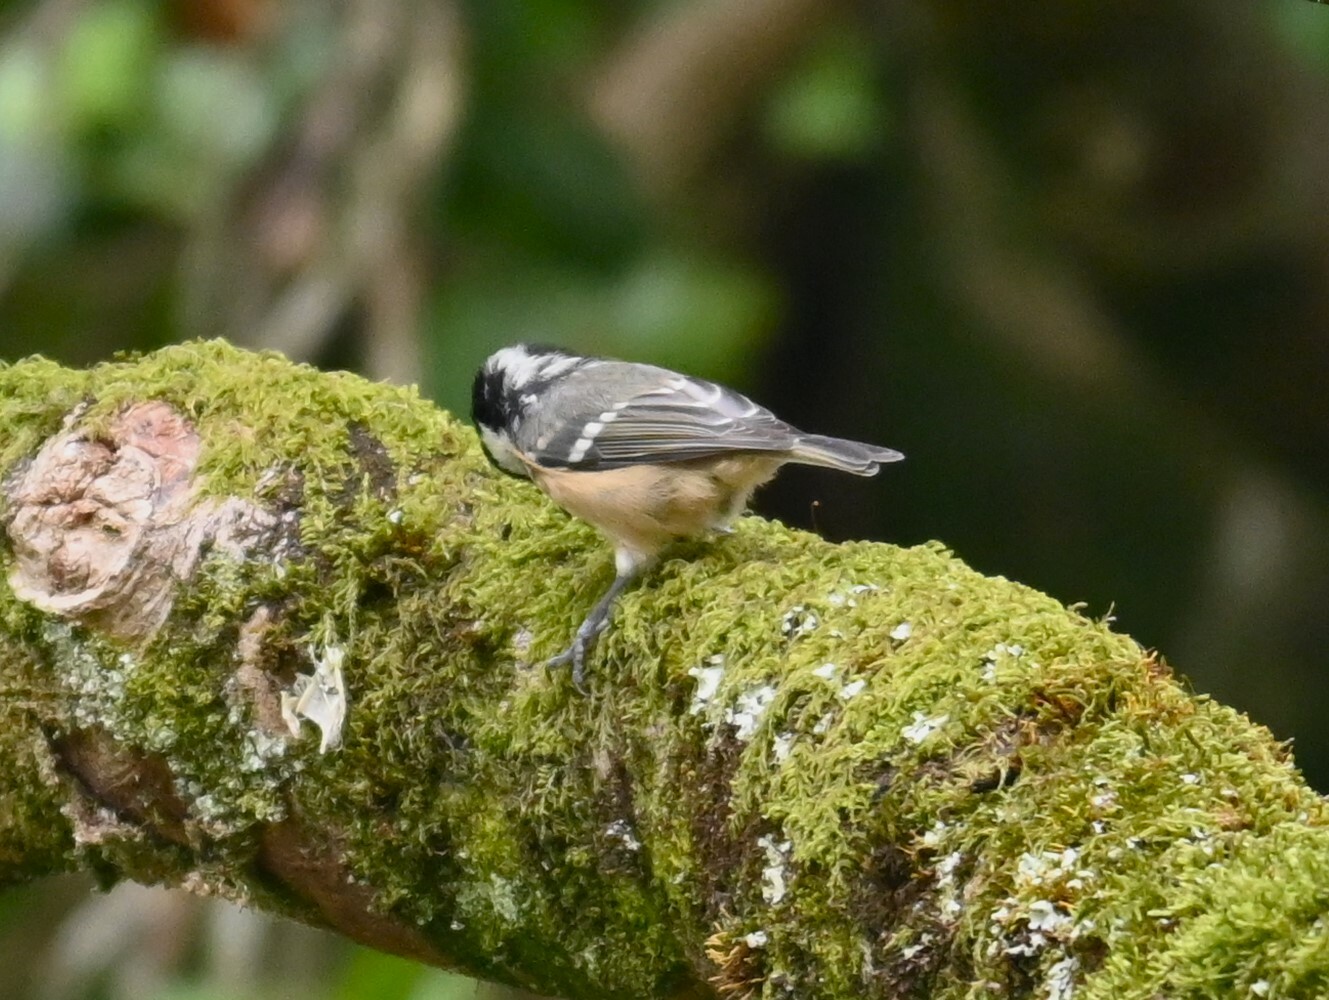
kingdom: Animalia
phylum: Chordata
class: Aves
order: Passeriformes
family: Paridae
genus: Periparus
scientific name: Periparus ater
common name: Coal tit
